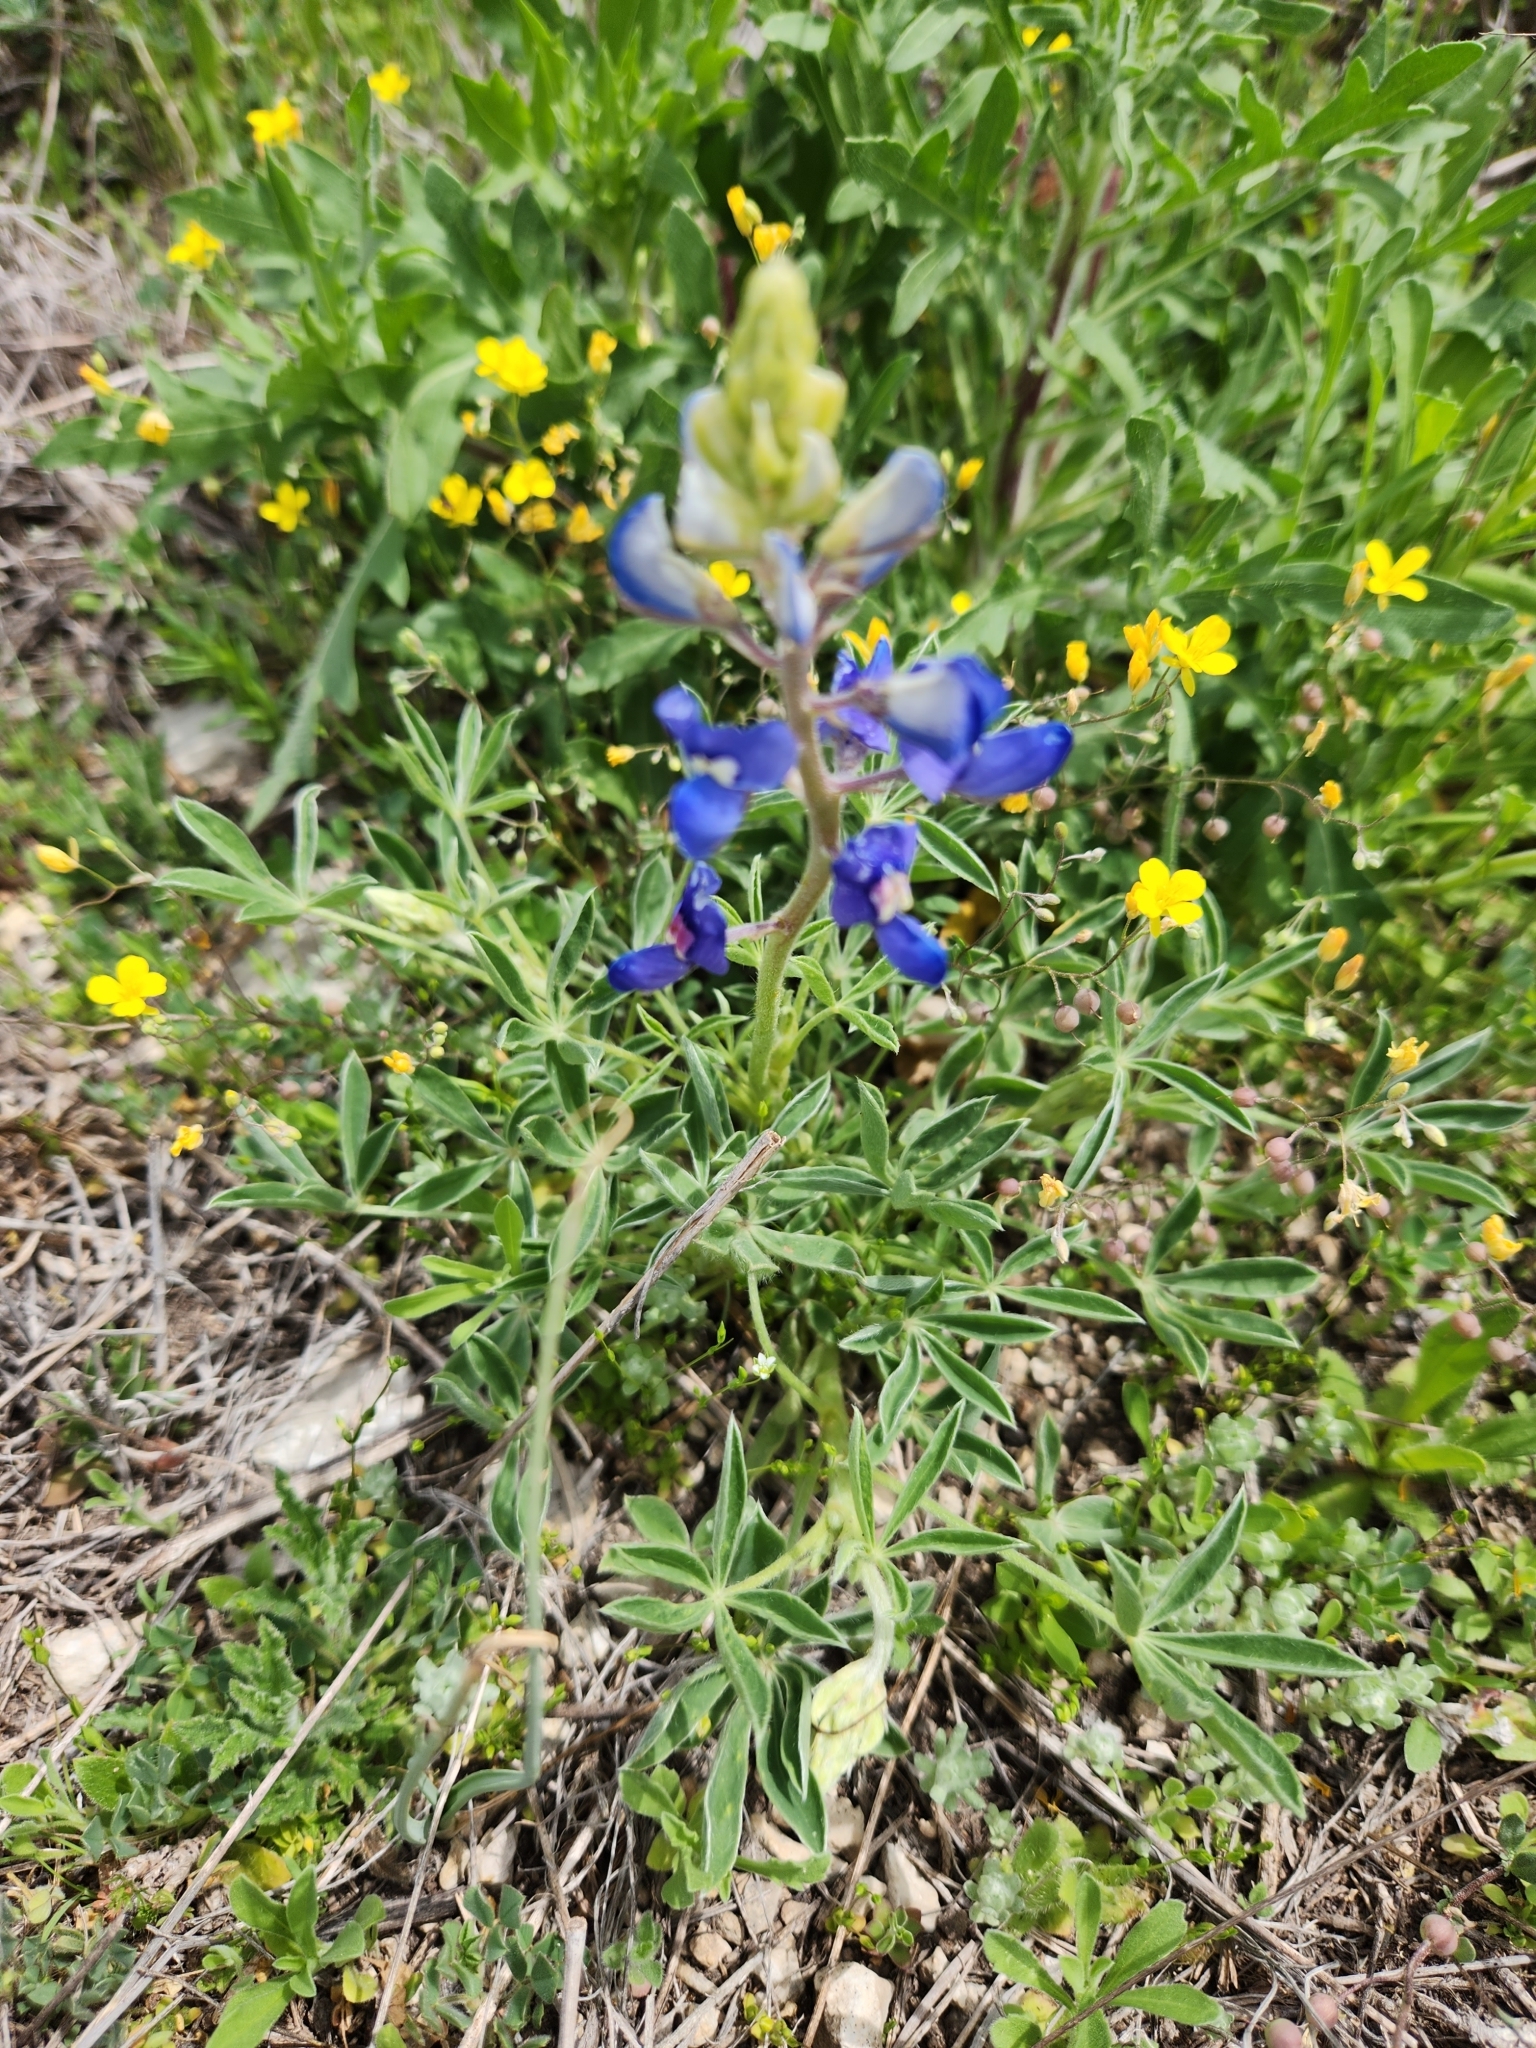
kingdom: Plantae
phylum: Tracheophyta
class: Magnoliopsida
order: Fabales
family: Fabaceae
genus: Lupinus
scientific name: Lupinus texensis
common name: Texas bluebonnet
